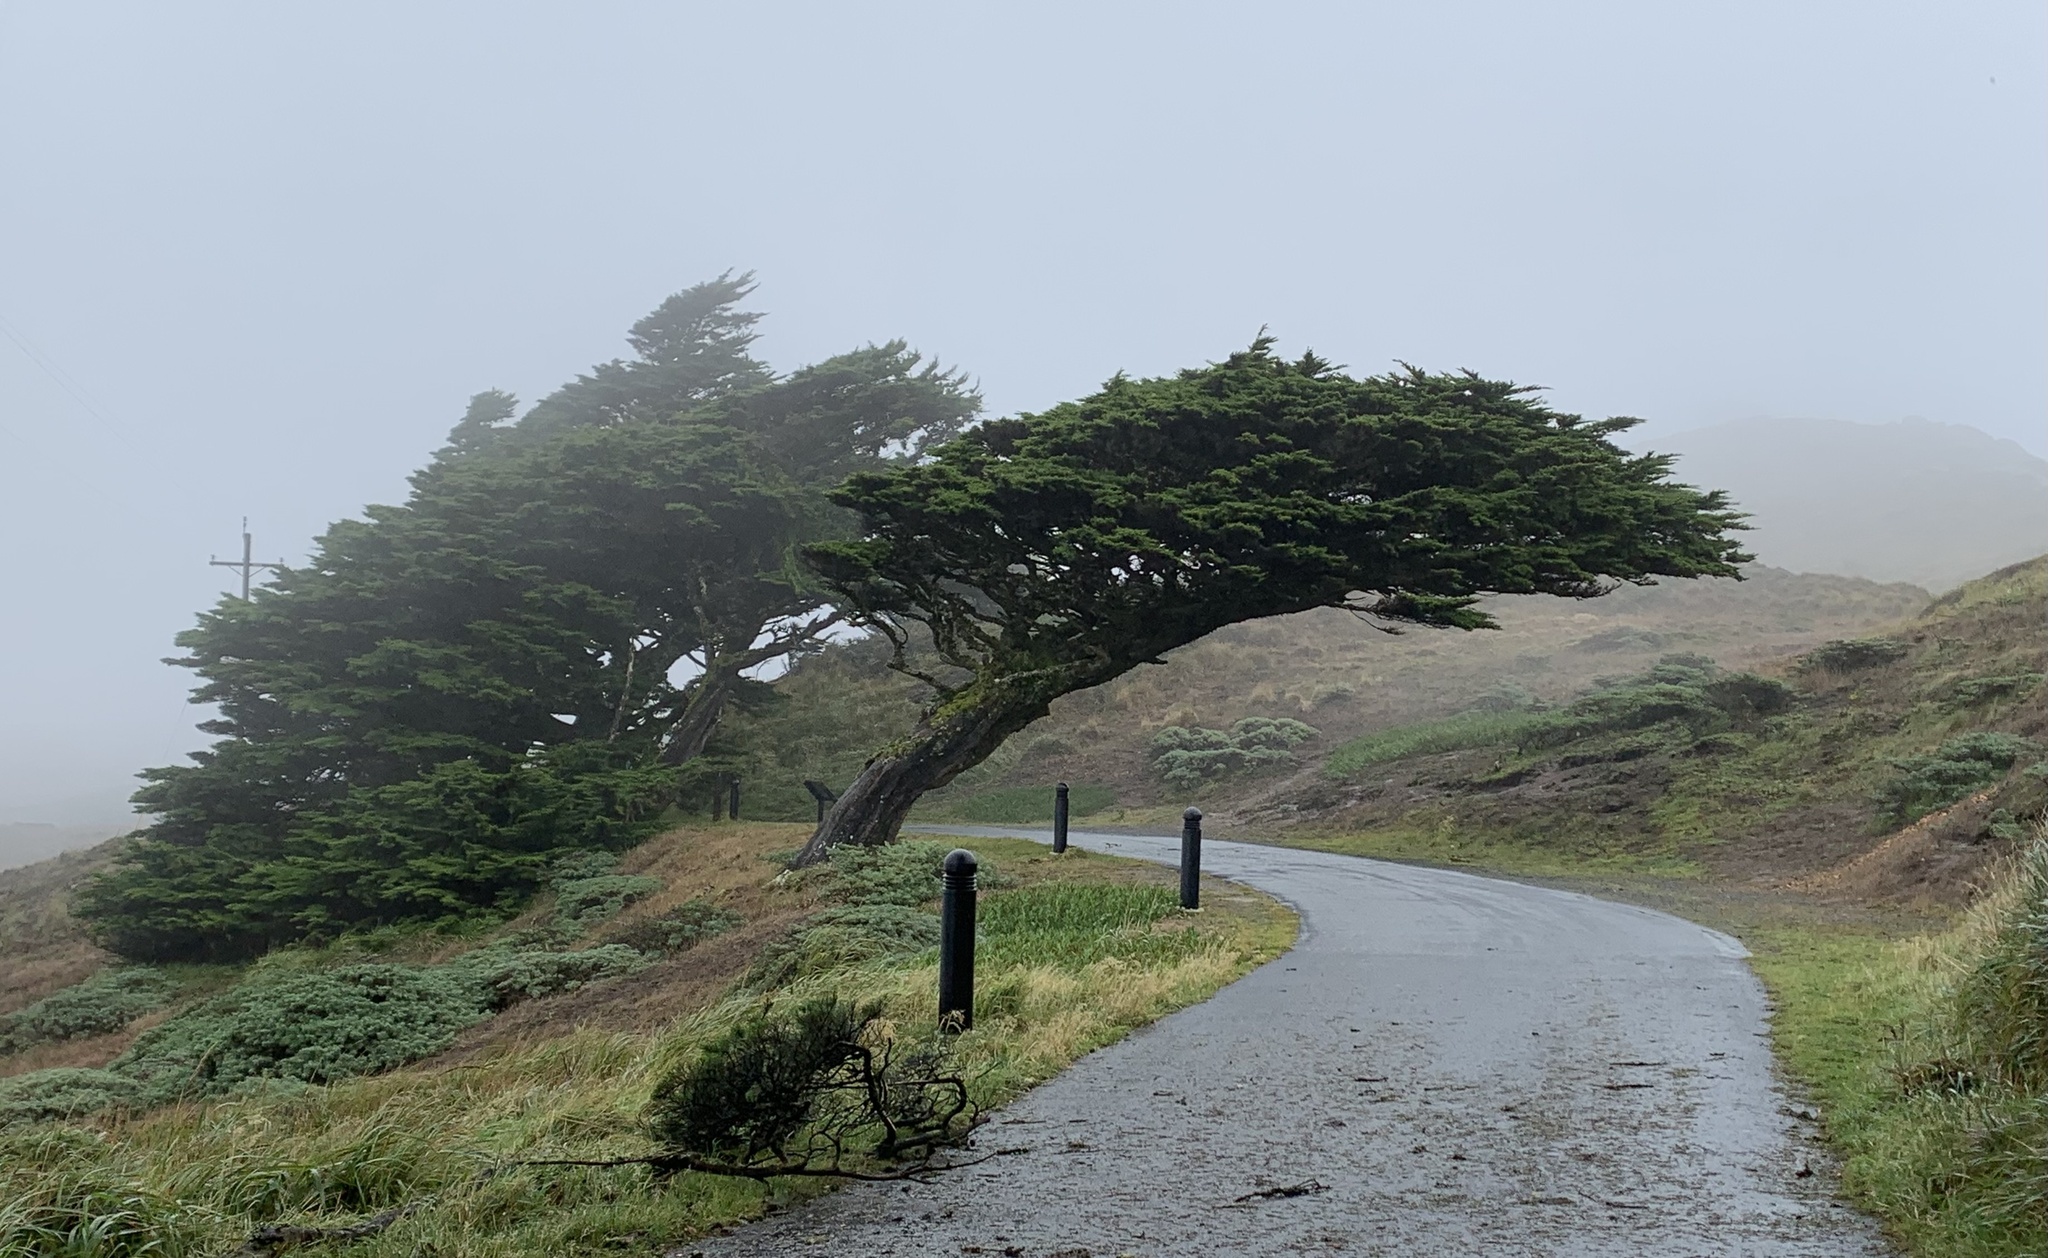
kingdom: Plantae
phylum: Tracheophyta
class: Pinopsida
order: Pinales
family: Cupressaceae
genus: Cupressus
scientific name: Cupressus macrocarpa
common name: Monterey cypress
